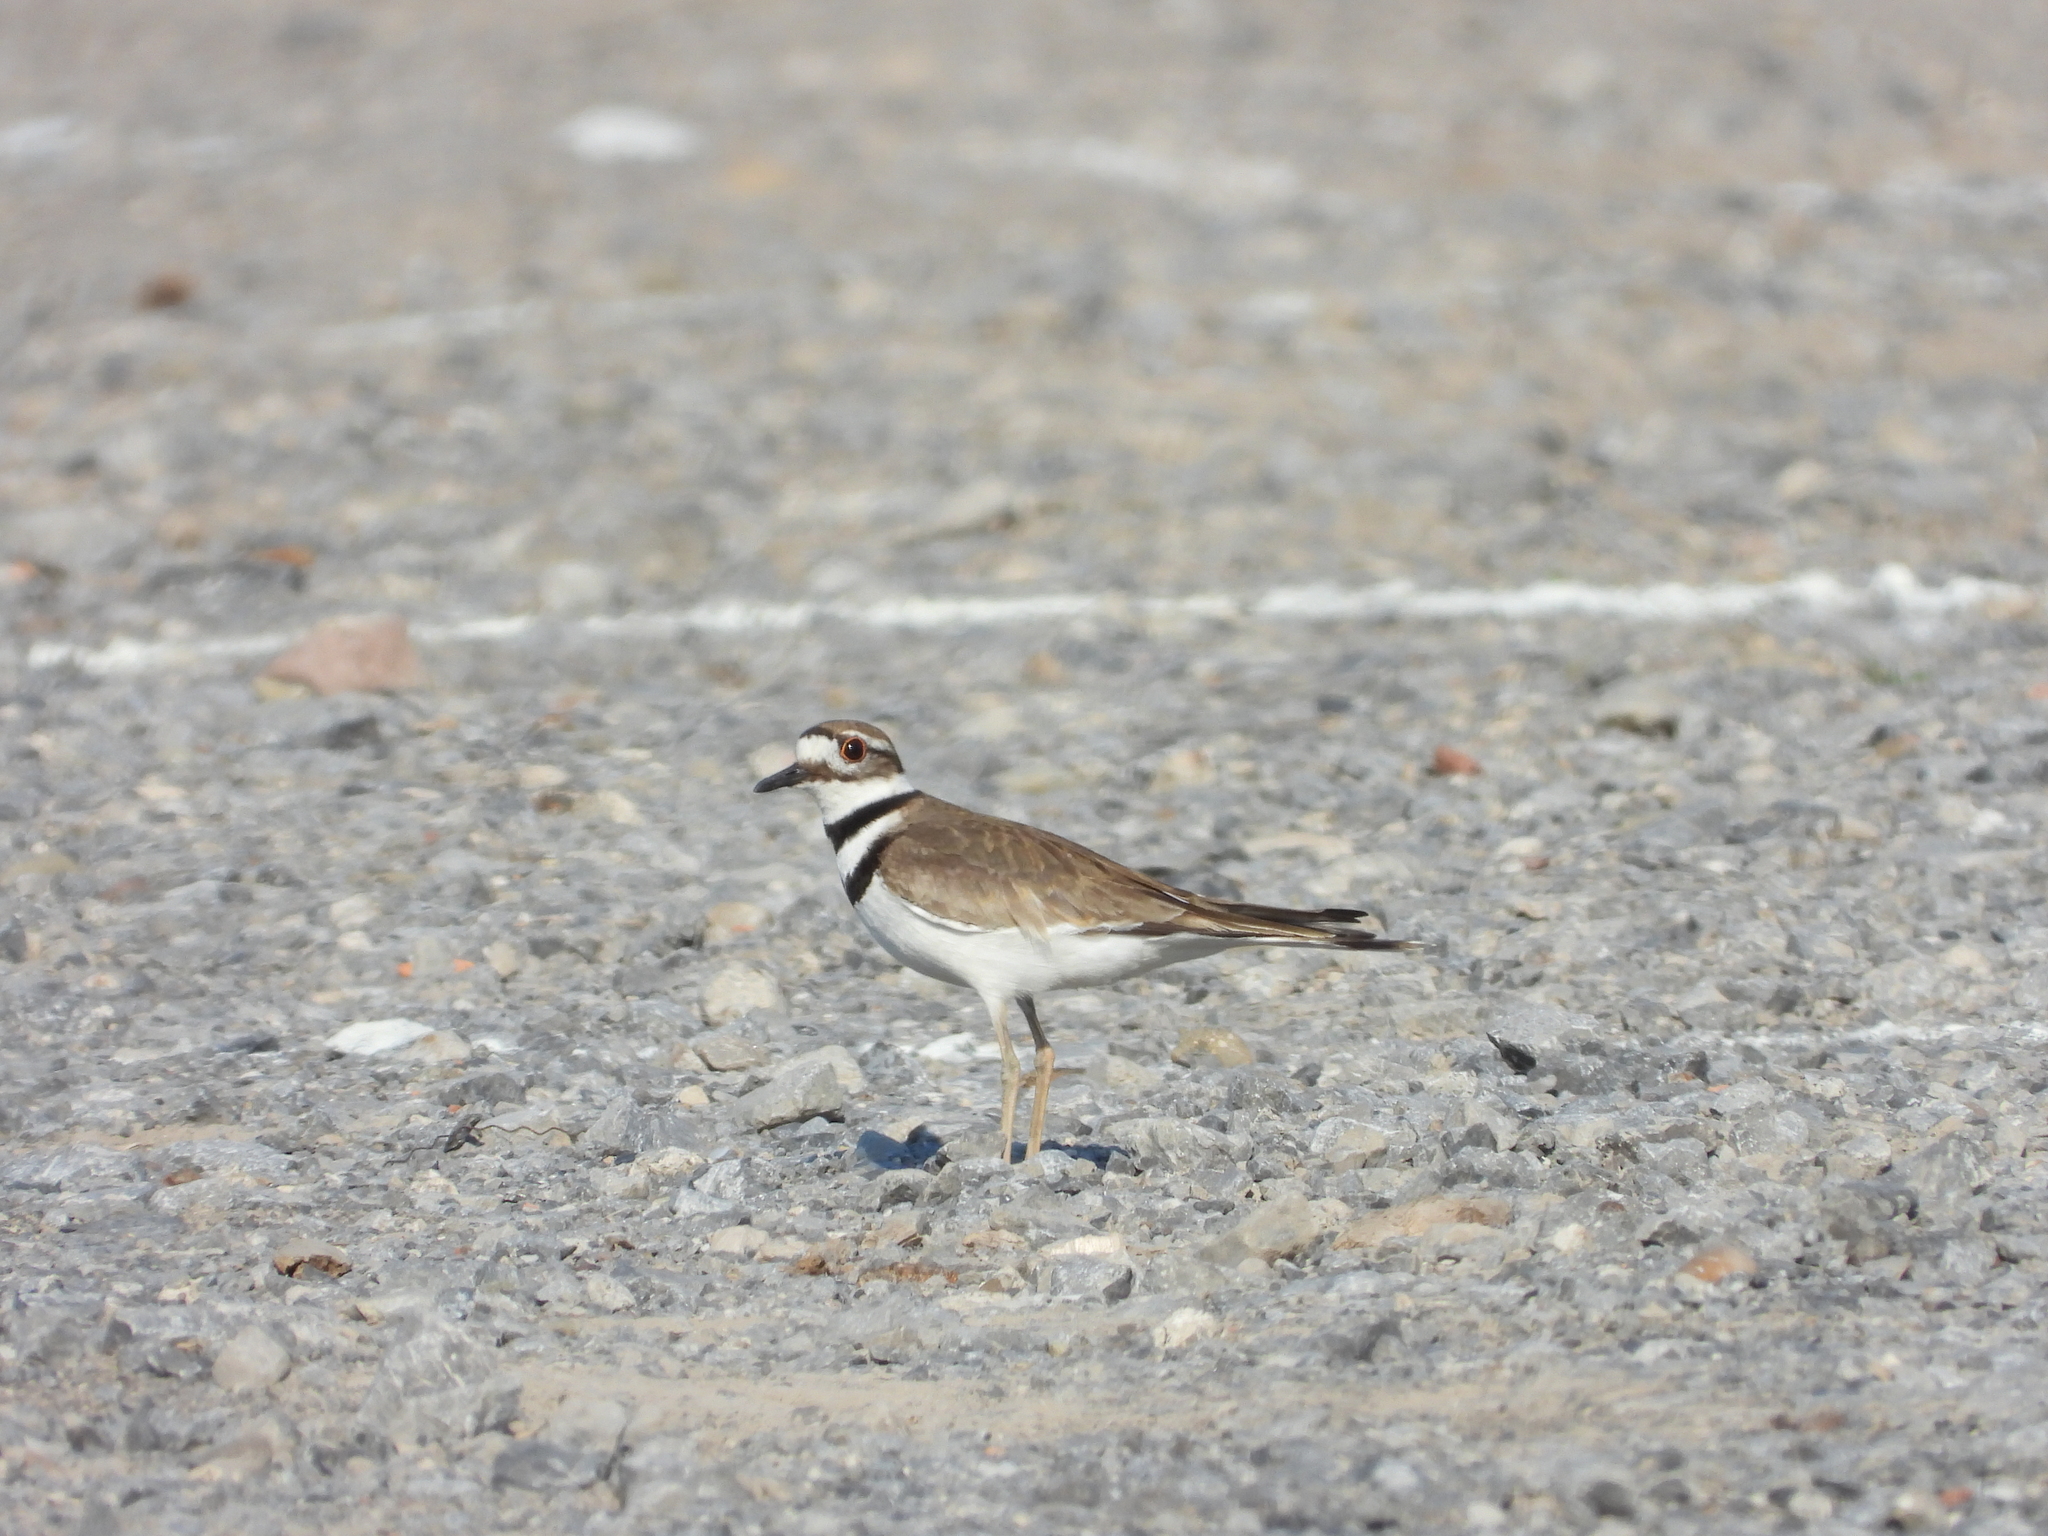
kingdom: Animalia
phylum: Chordata
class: Aves
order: Charadriiformes
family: Charadriidae
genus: Charadrius
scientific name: Charadrius vociferus
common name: Killdeer
